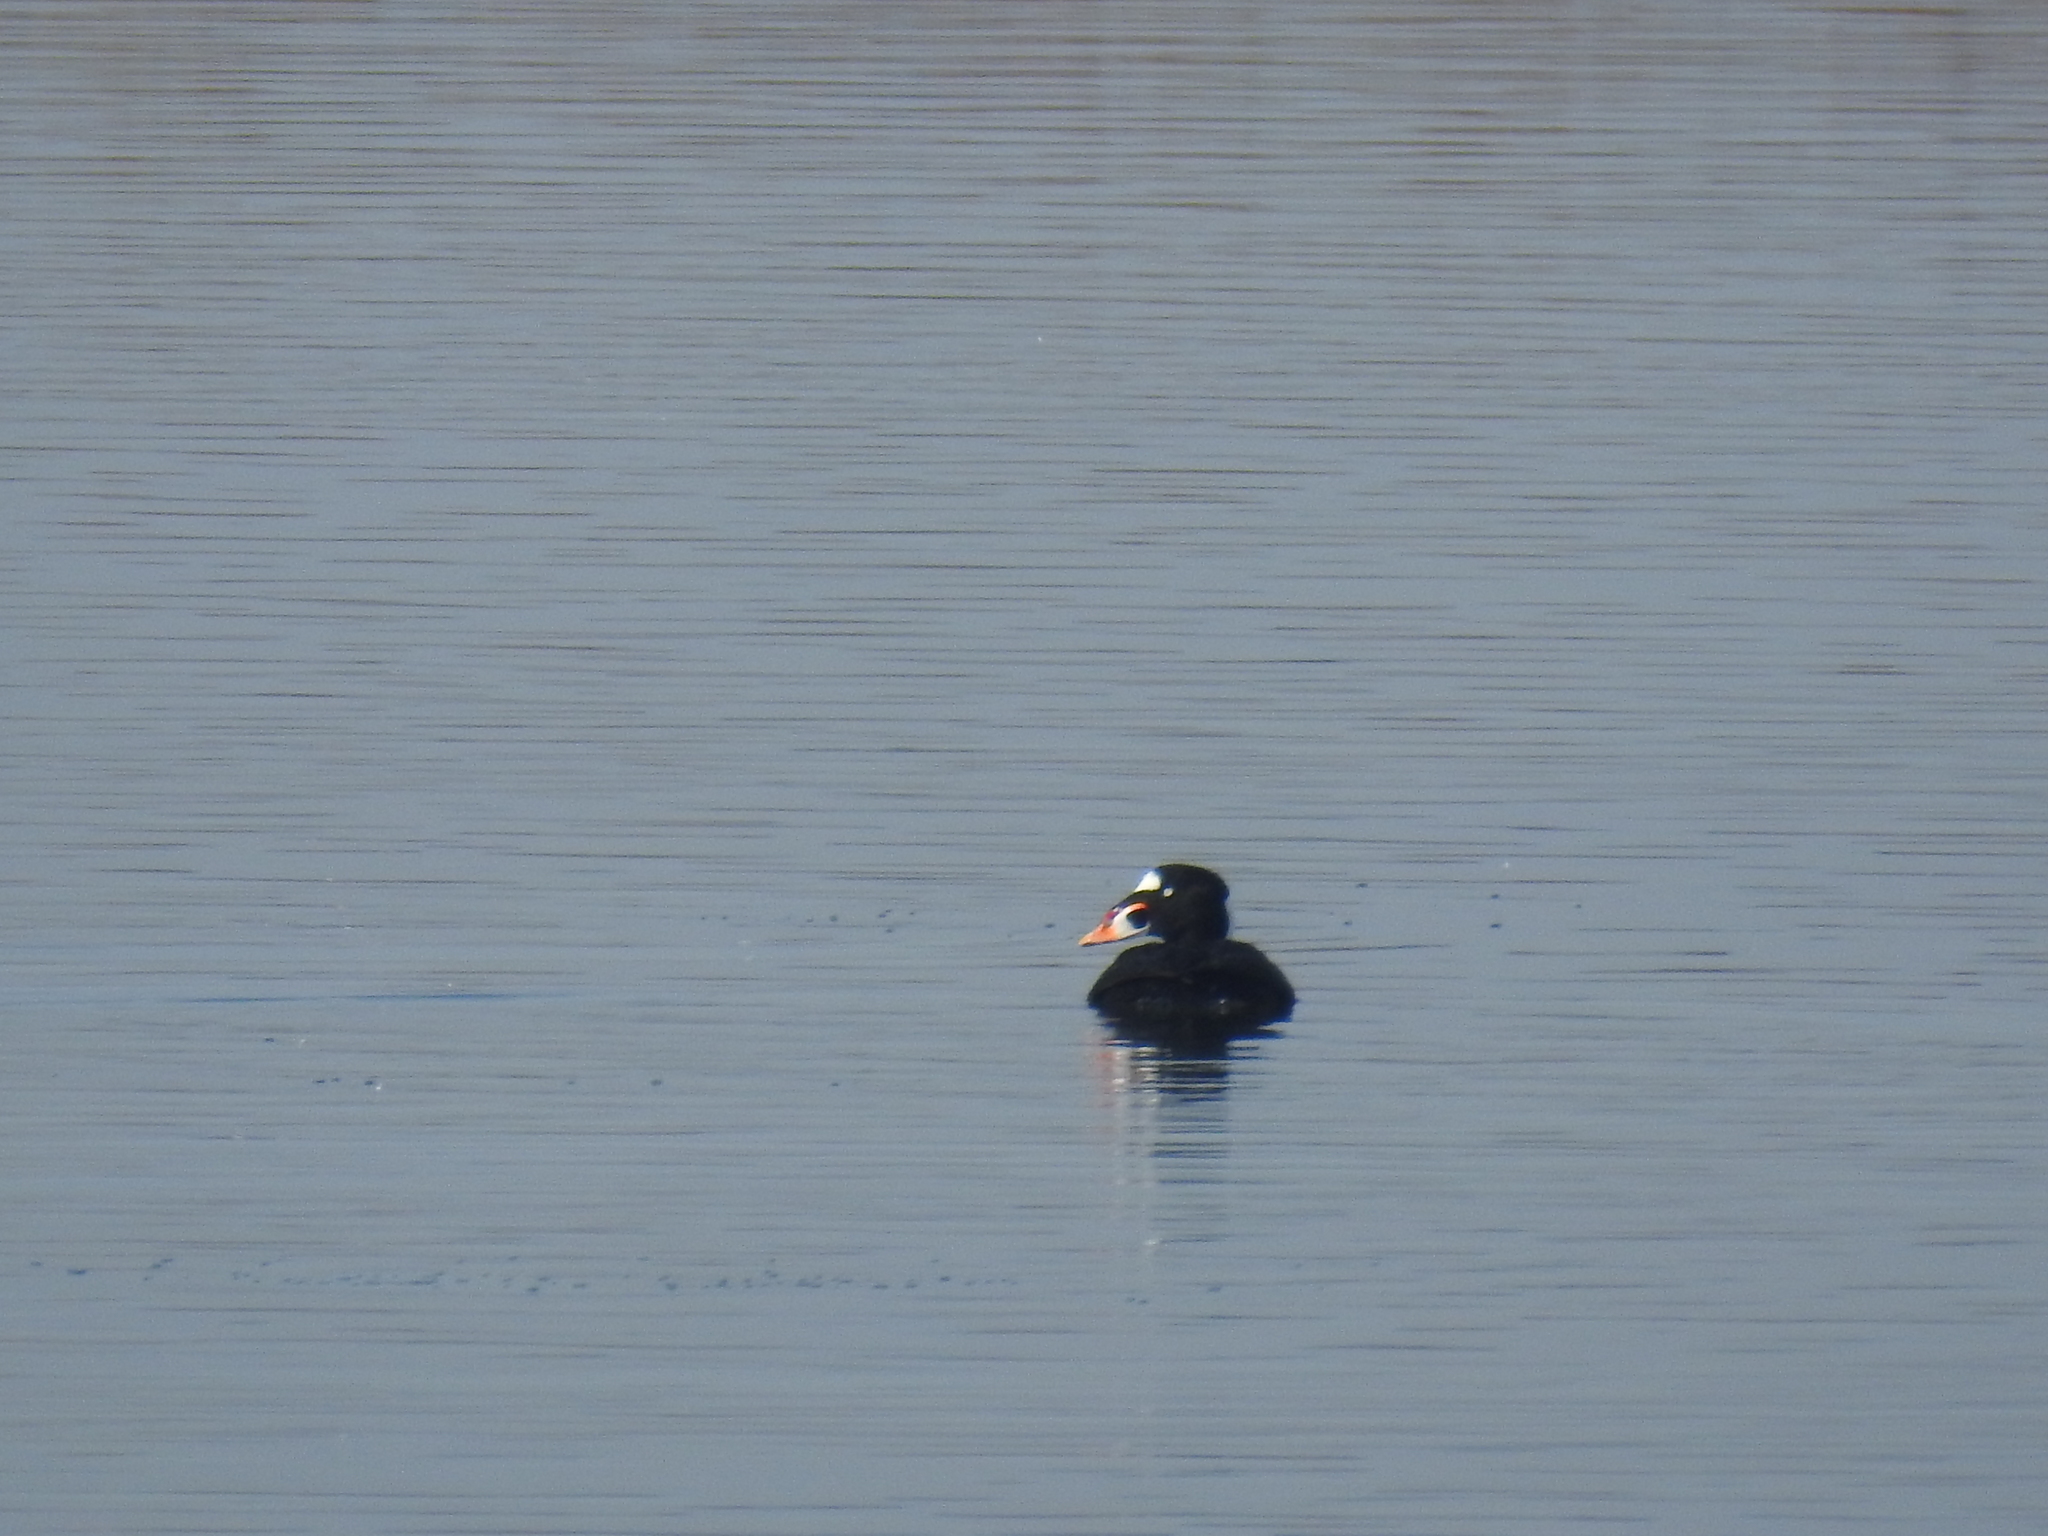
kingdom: Animalia
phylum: Chordata
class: Aves
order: Anseriformes
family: Anatidae
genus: Melanitta
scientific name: Melanitta perspicillata
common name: Surf scoter
